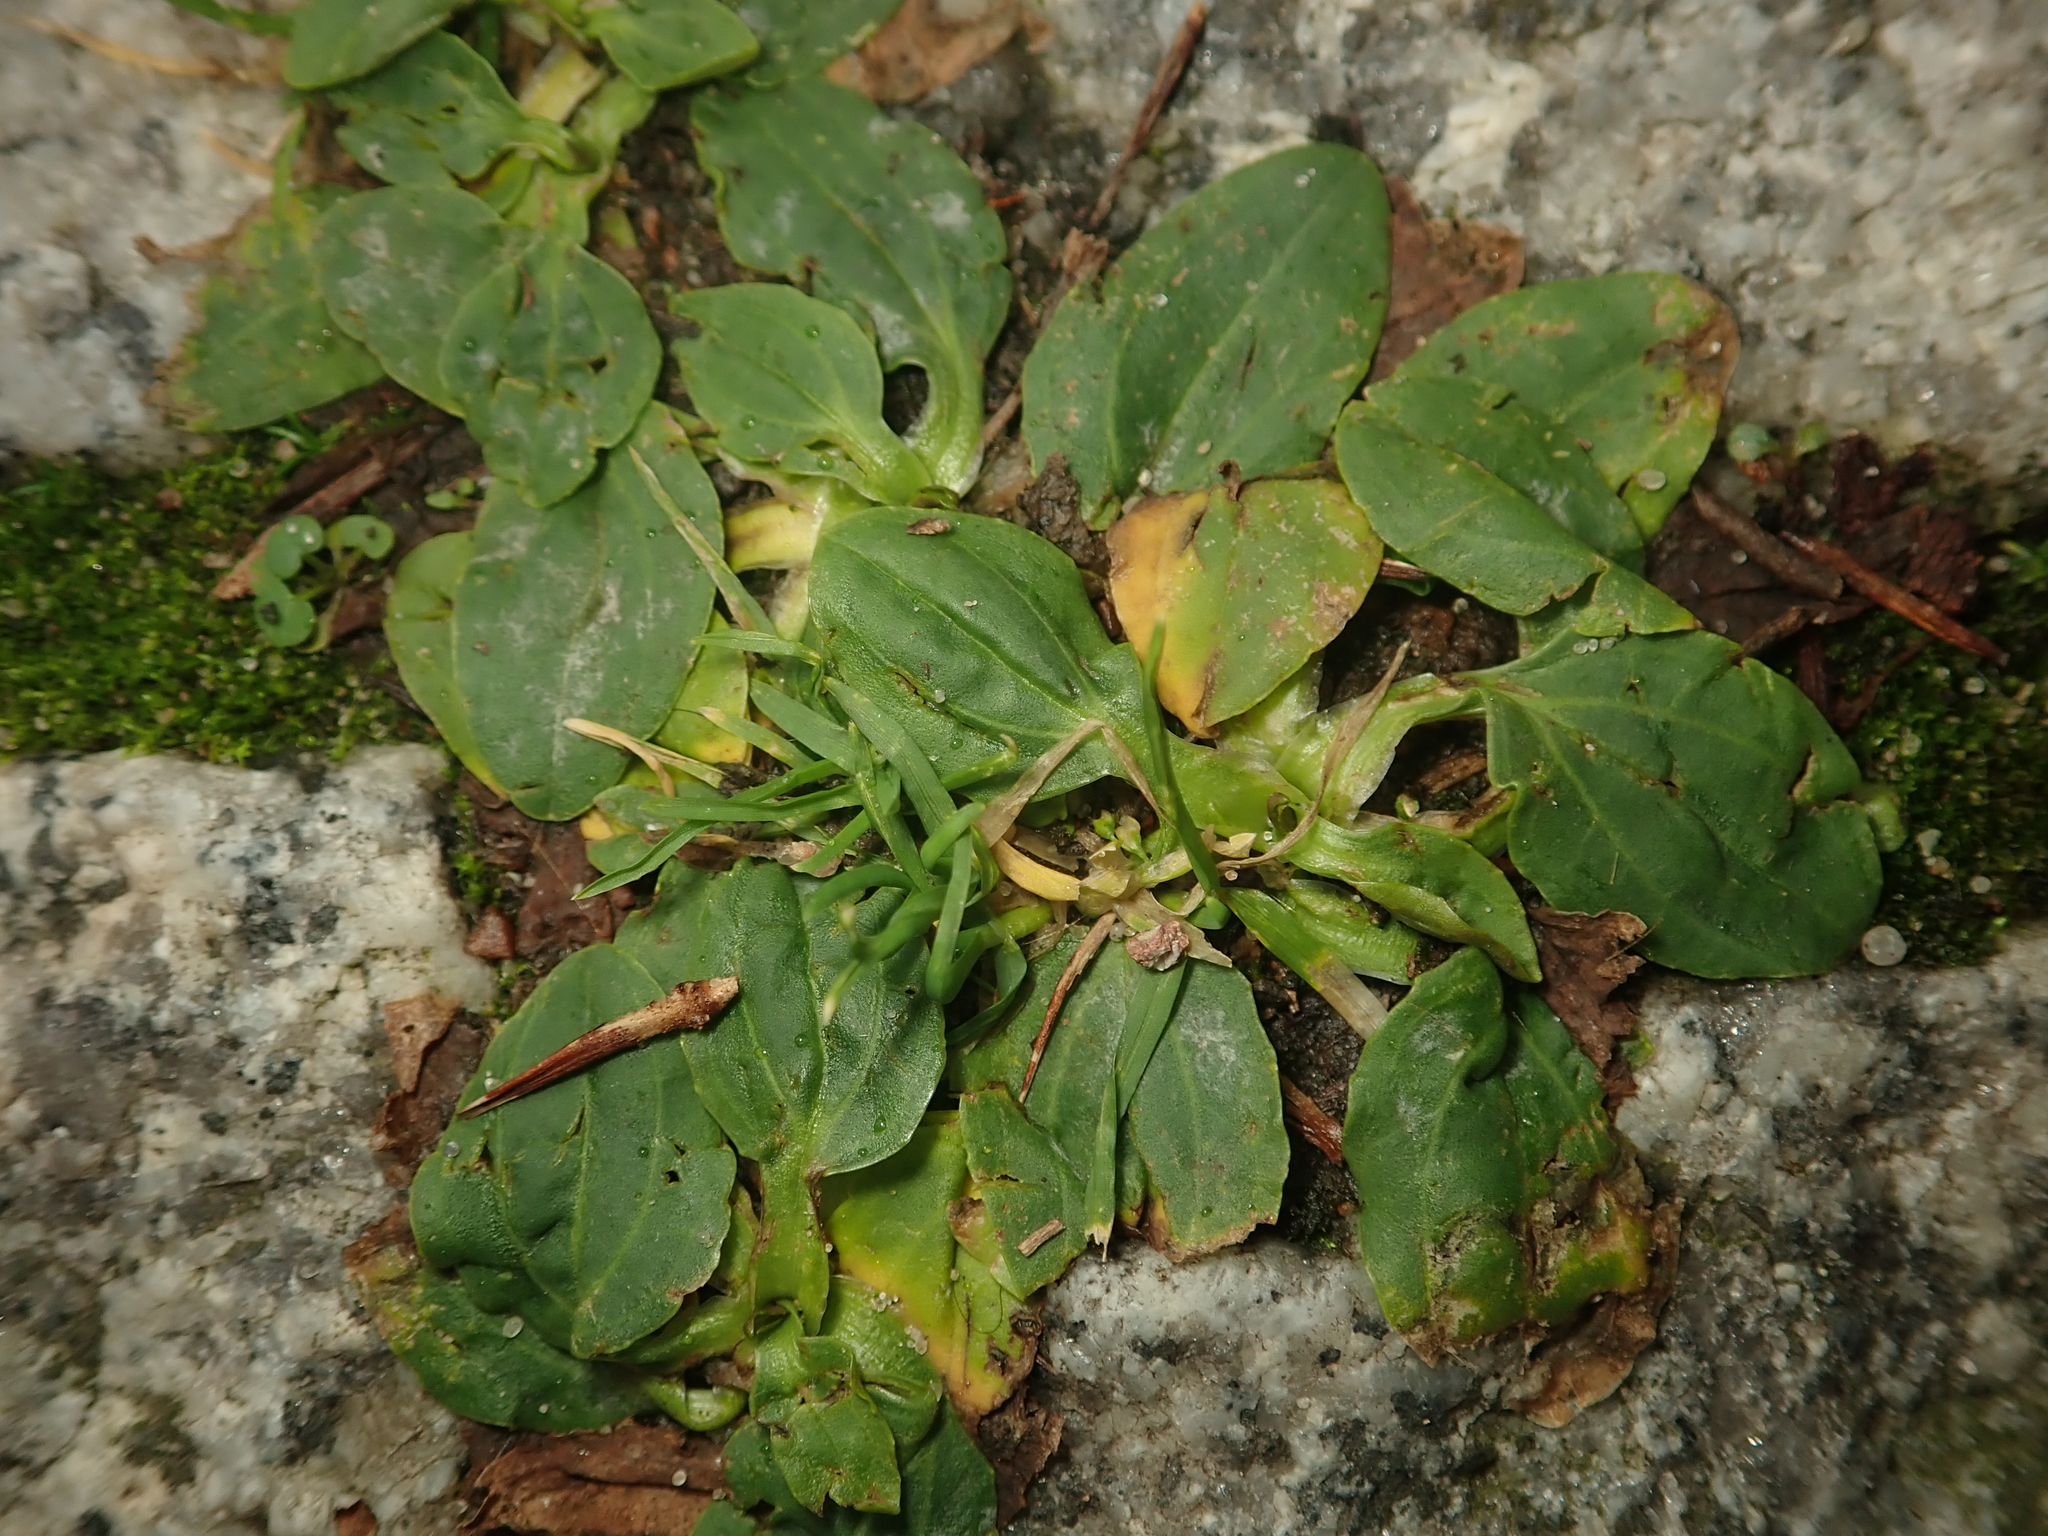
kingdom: Plantae
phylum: Tracheophyta
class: Magnoliopsida
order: Lamiales
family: Plantaginaceae
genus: Plantago
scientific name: Plantago major
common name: Common plantain
